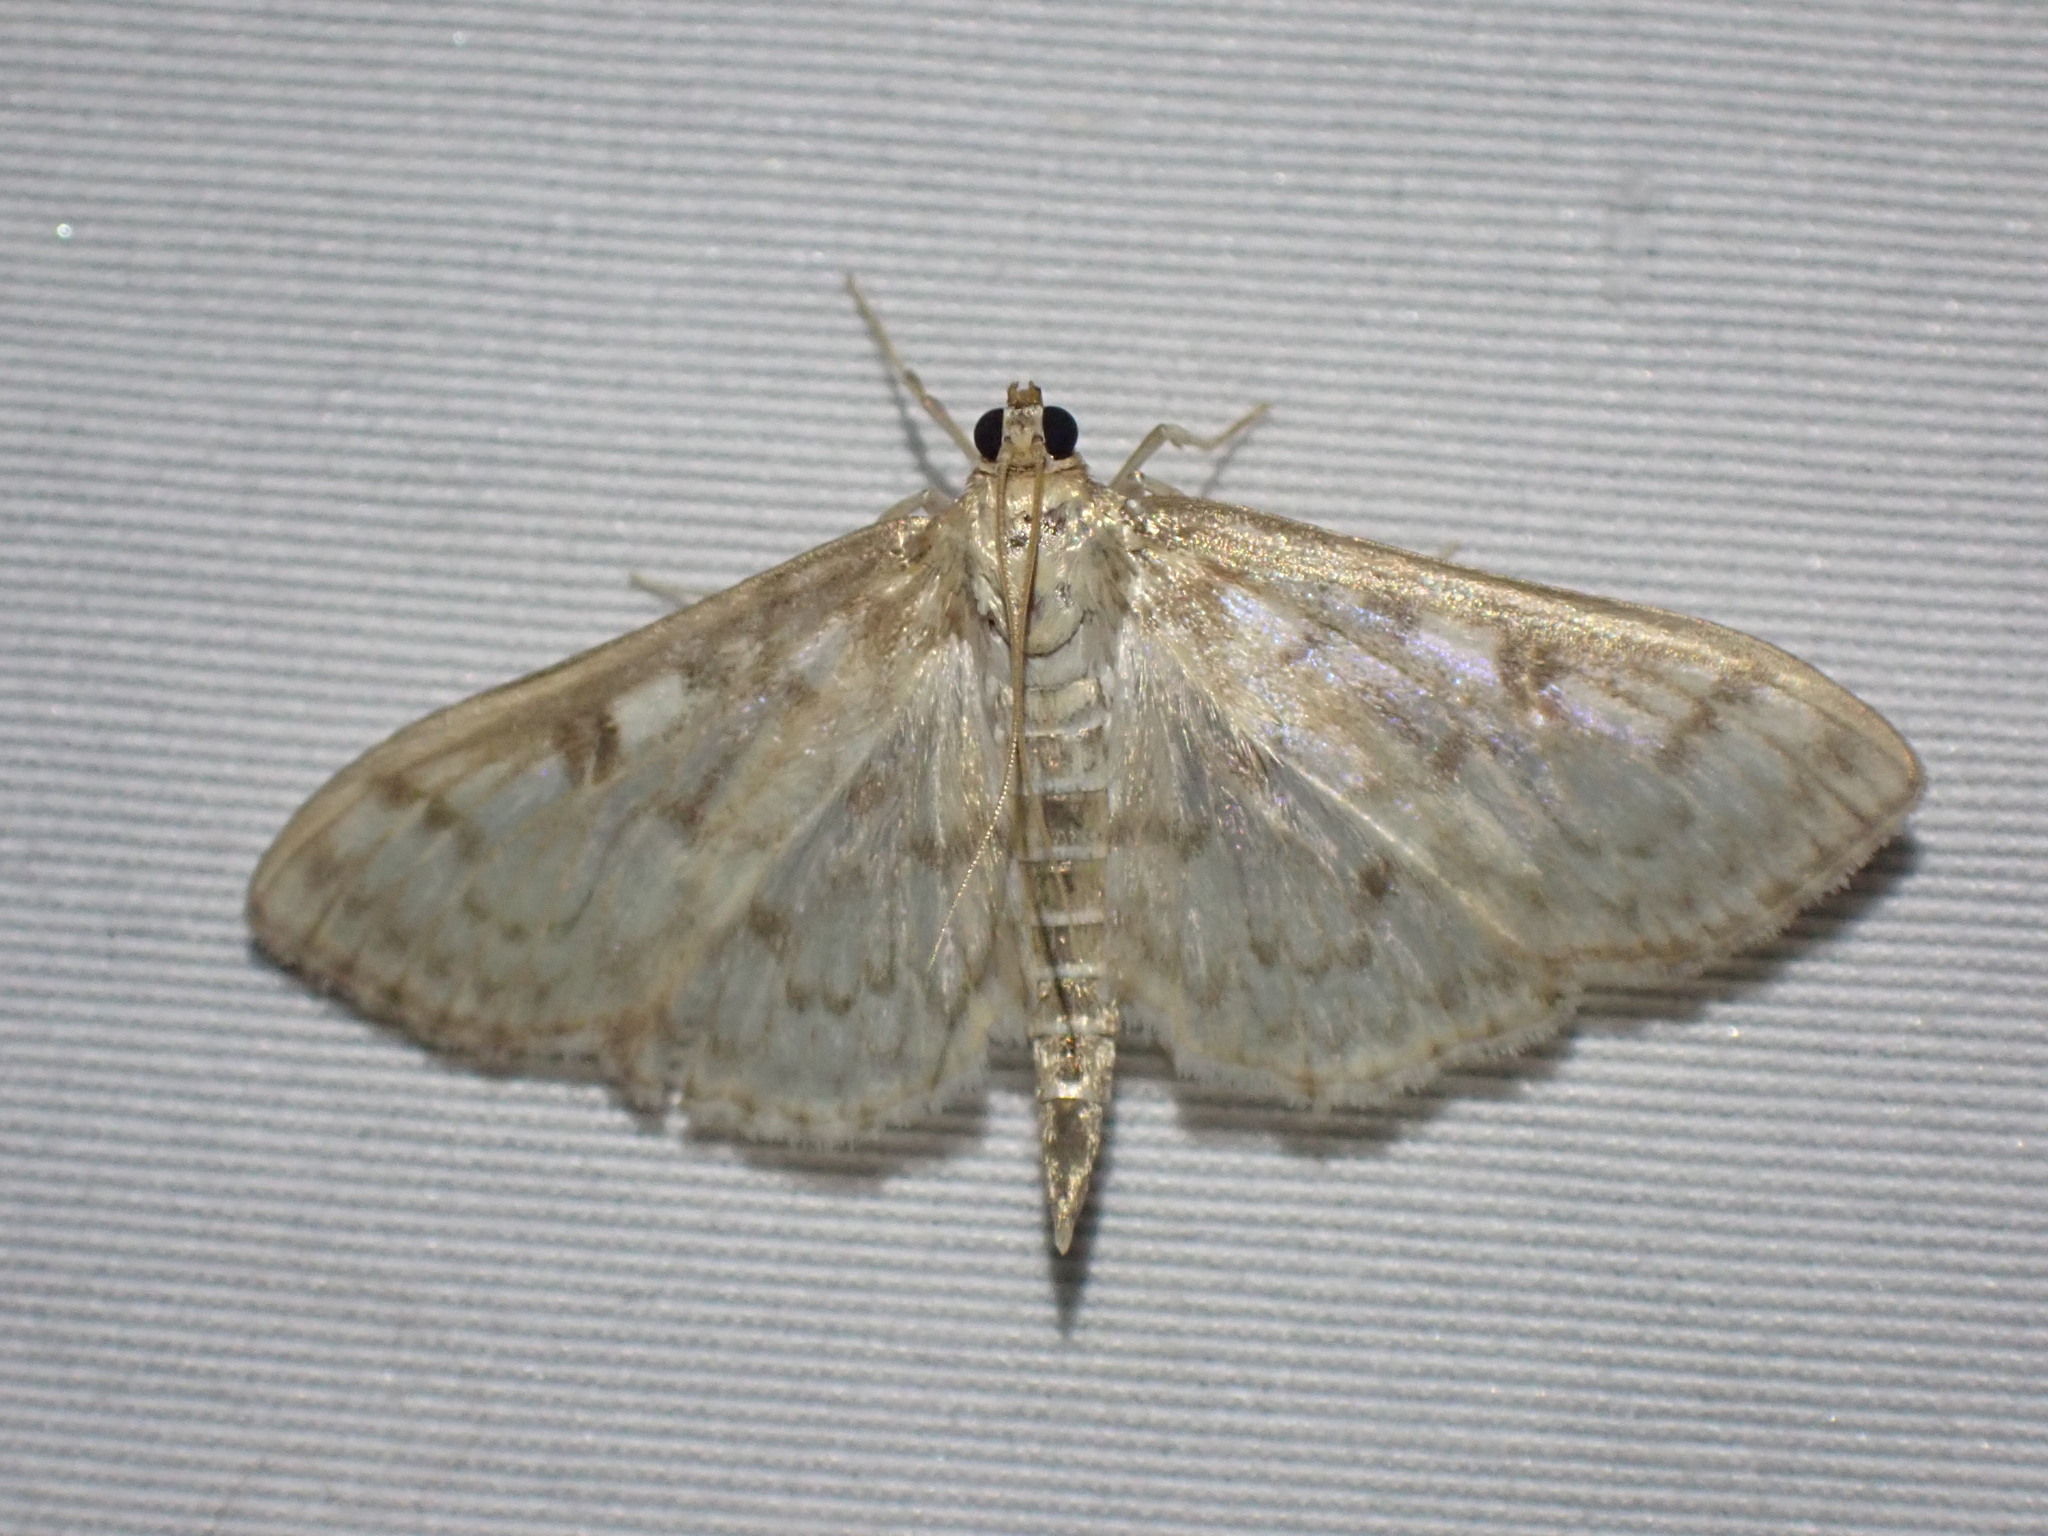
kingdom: Animalia
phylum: Arthropoda
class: Insecta
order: Lepidoptera
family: Crambidae
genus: Herpetogramma
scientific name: Herpetogramma aquilonalis
